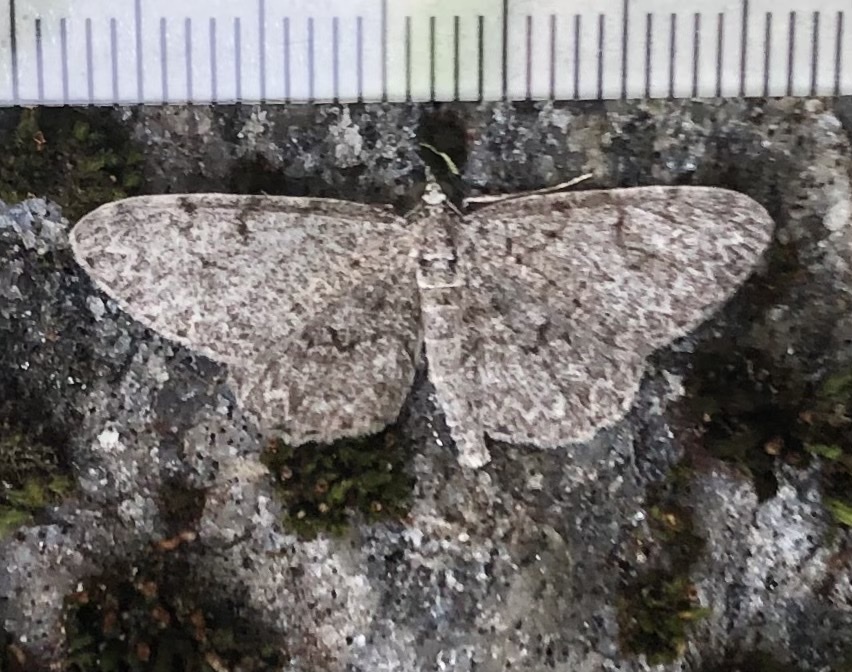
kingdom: Animalia
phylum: Arthropoda
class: Insecta
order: Lepidoptera
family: Geometridae
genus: Protoboarmia
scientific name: Protoboarmia porcelaria
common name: Porcelain gray
